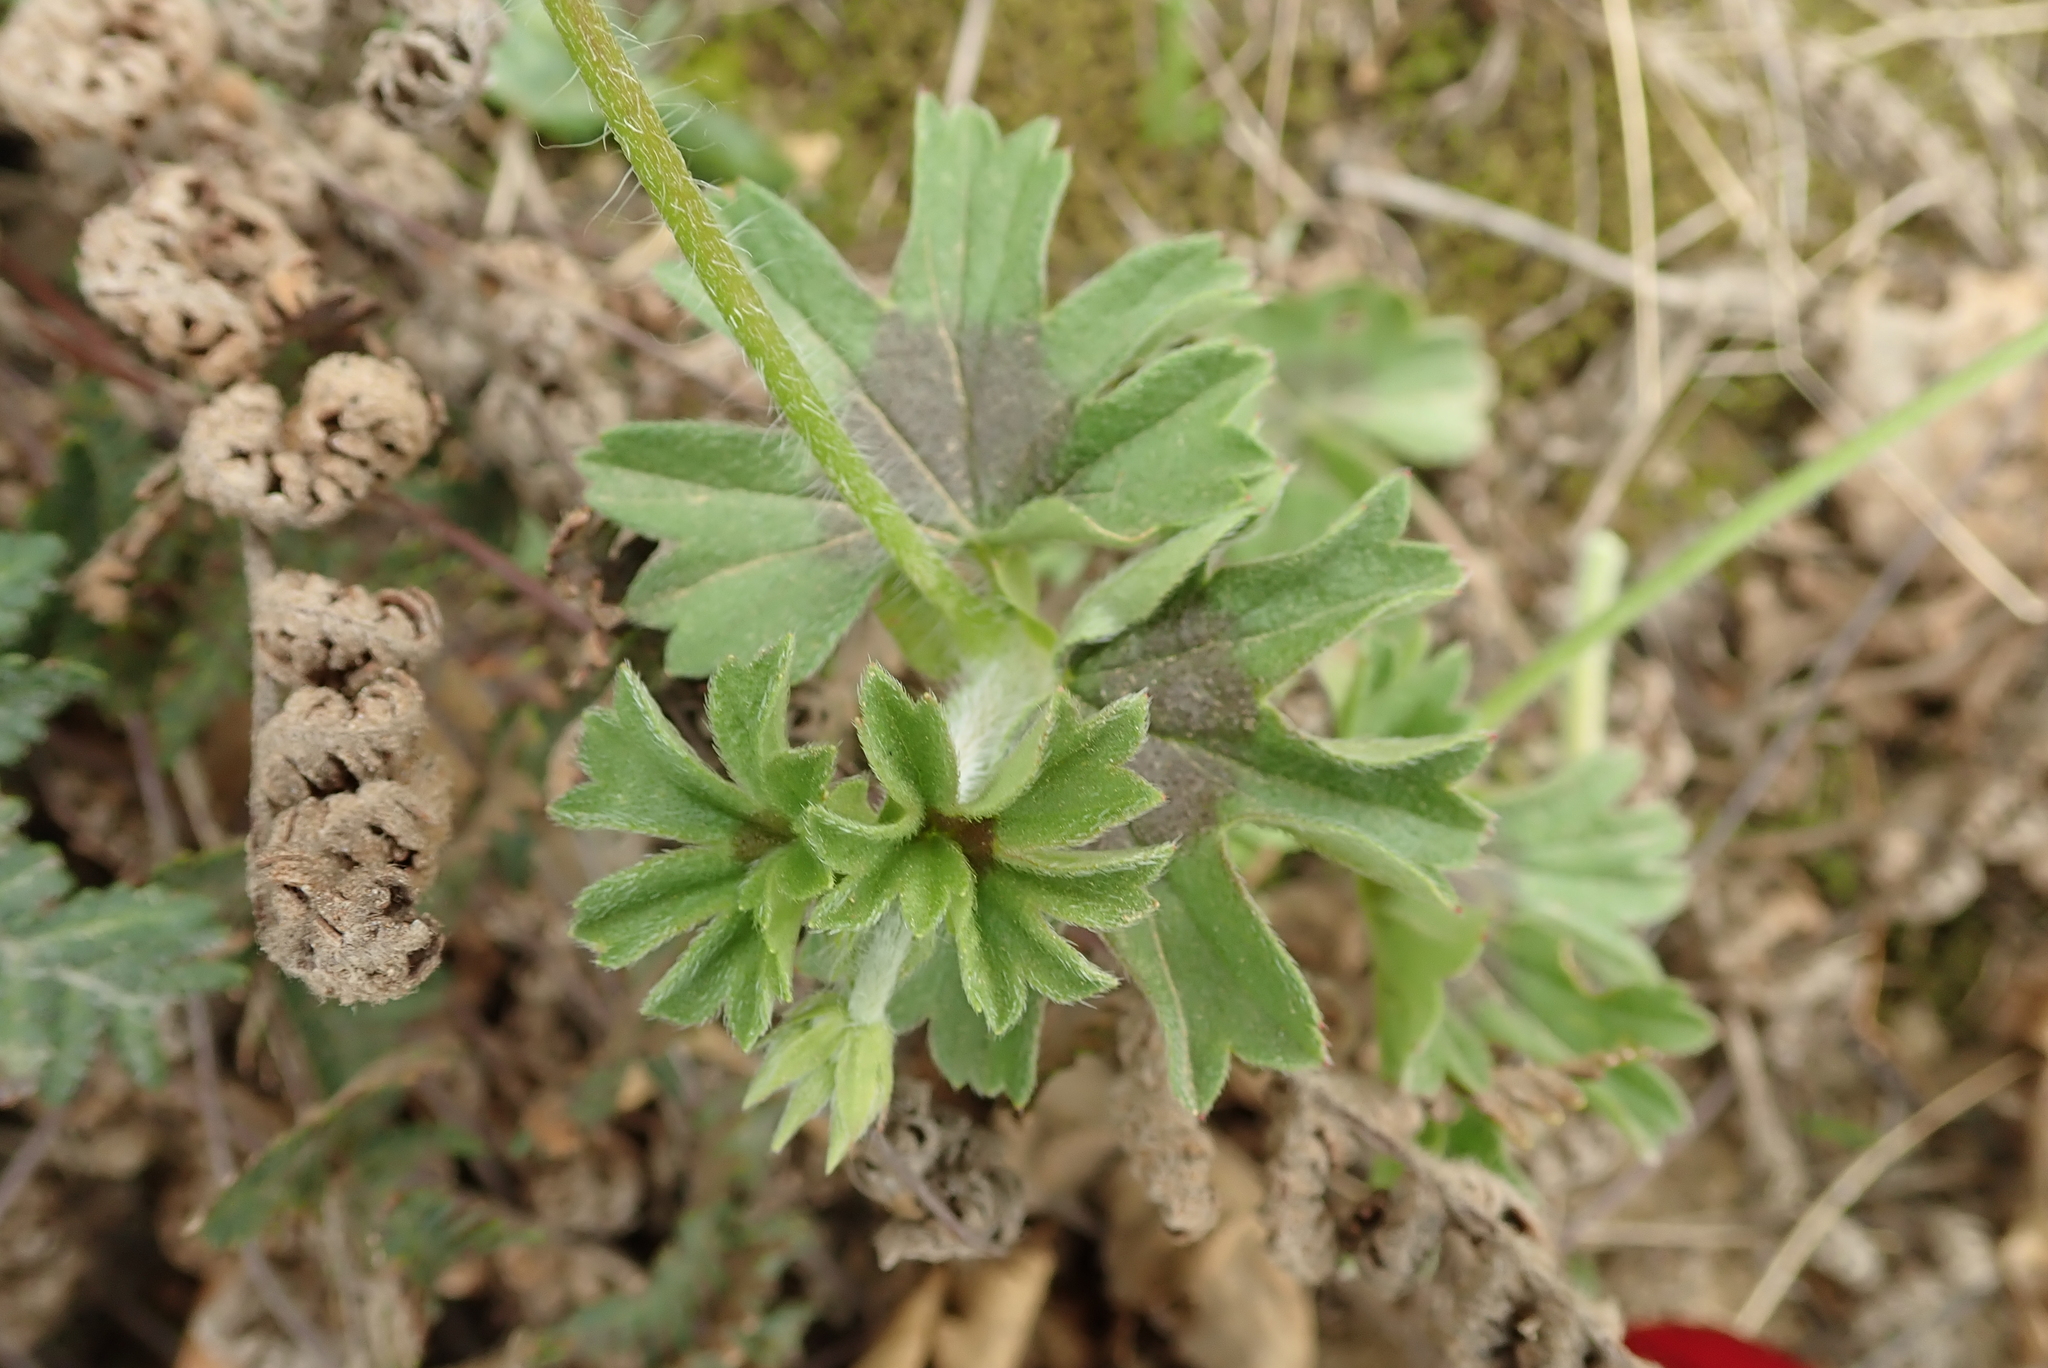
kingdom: Plantae
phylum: Tracheophyta
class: Magnoliopsida
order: Geraniales
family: Geraniaceae
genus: Pelargonium
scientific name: Pelargonium alchemilloides
